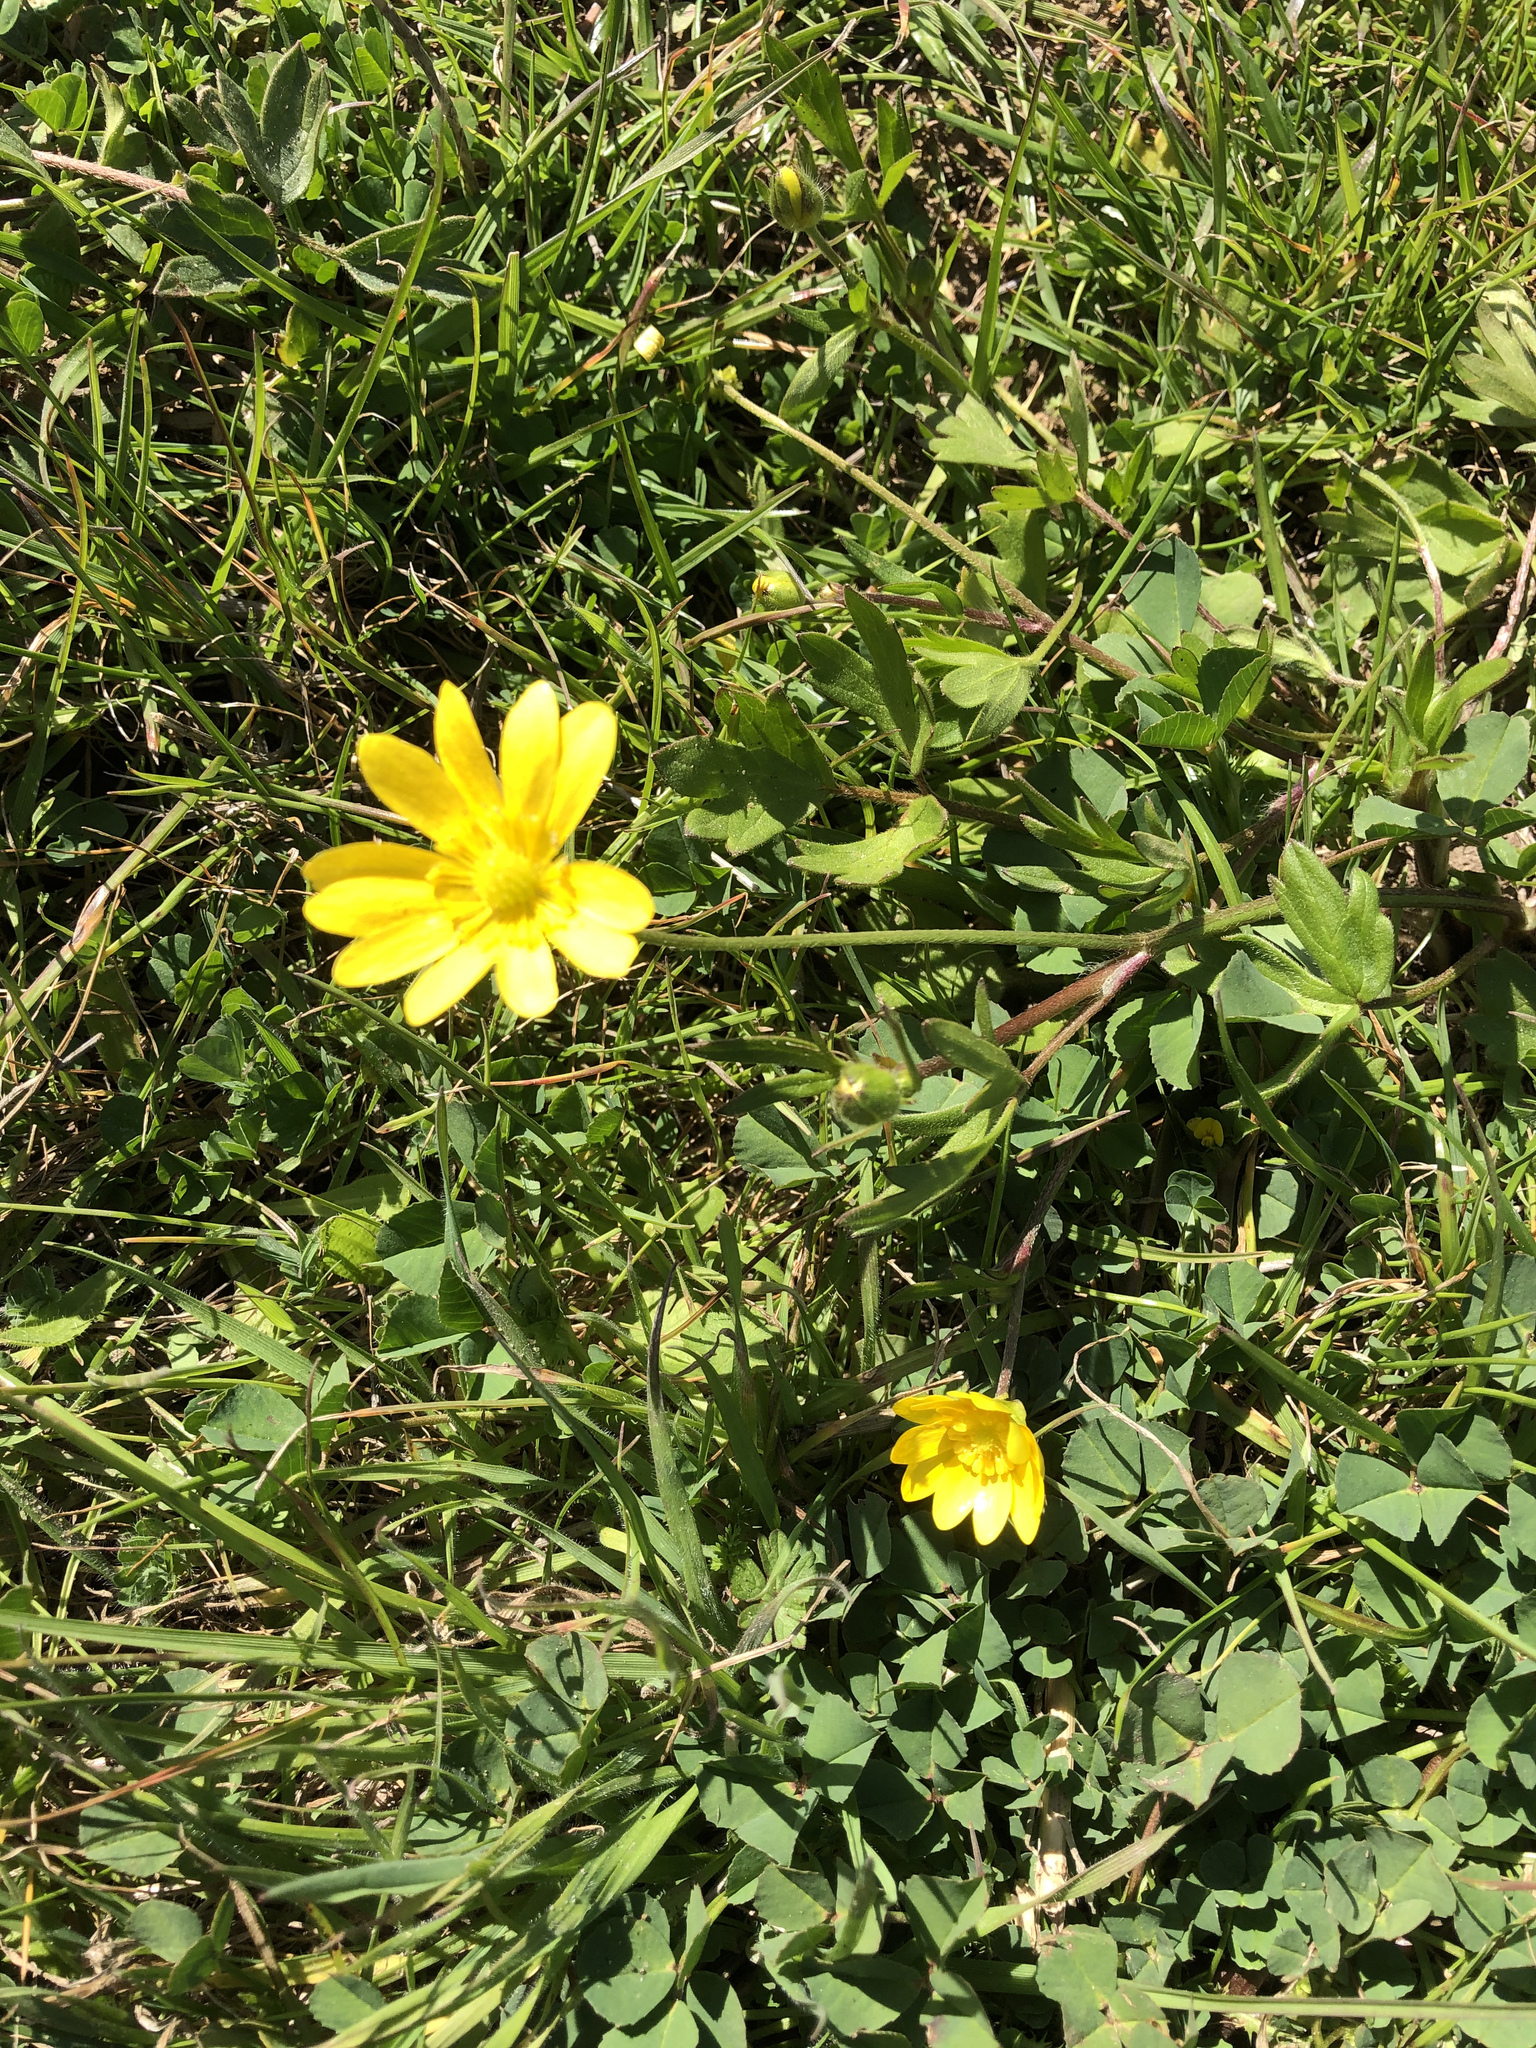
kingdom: Plantae
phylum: Tracheophyta
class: Magnoliopsida
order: Ranunculales
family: Ranunculaceae
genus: Ranunculus
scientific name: Ranunculus californicus
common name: California buttercup
